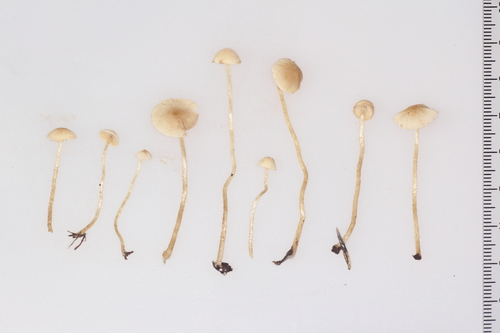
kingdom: Fungi
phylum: Basidiomycota
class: Agaricomycetes
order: Agaricales
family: Tubariaceae
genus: Flammulaster
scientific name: Flammulaster carpophilus
